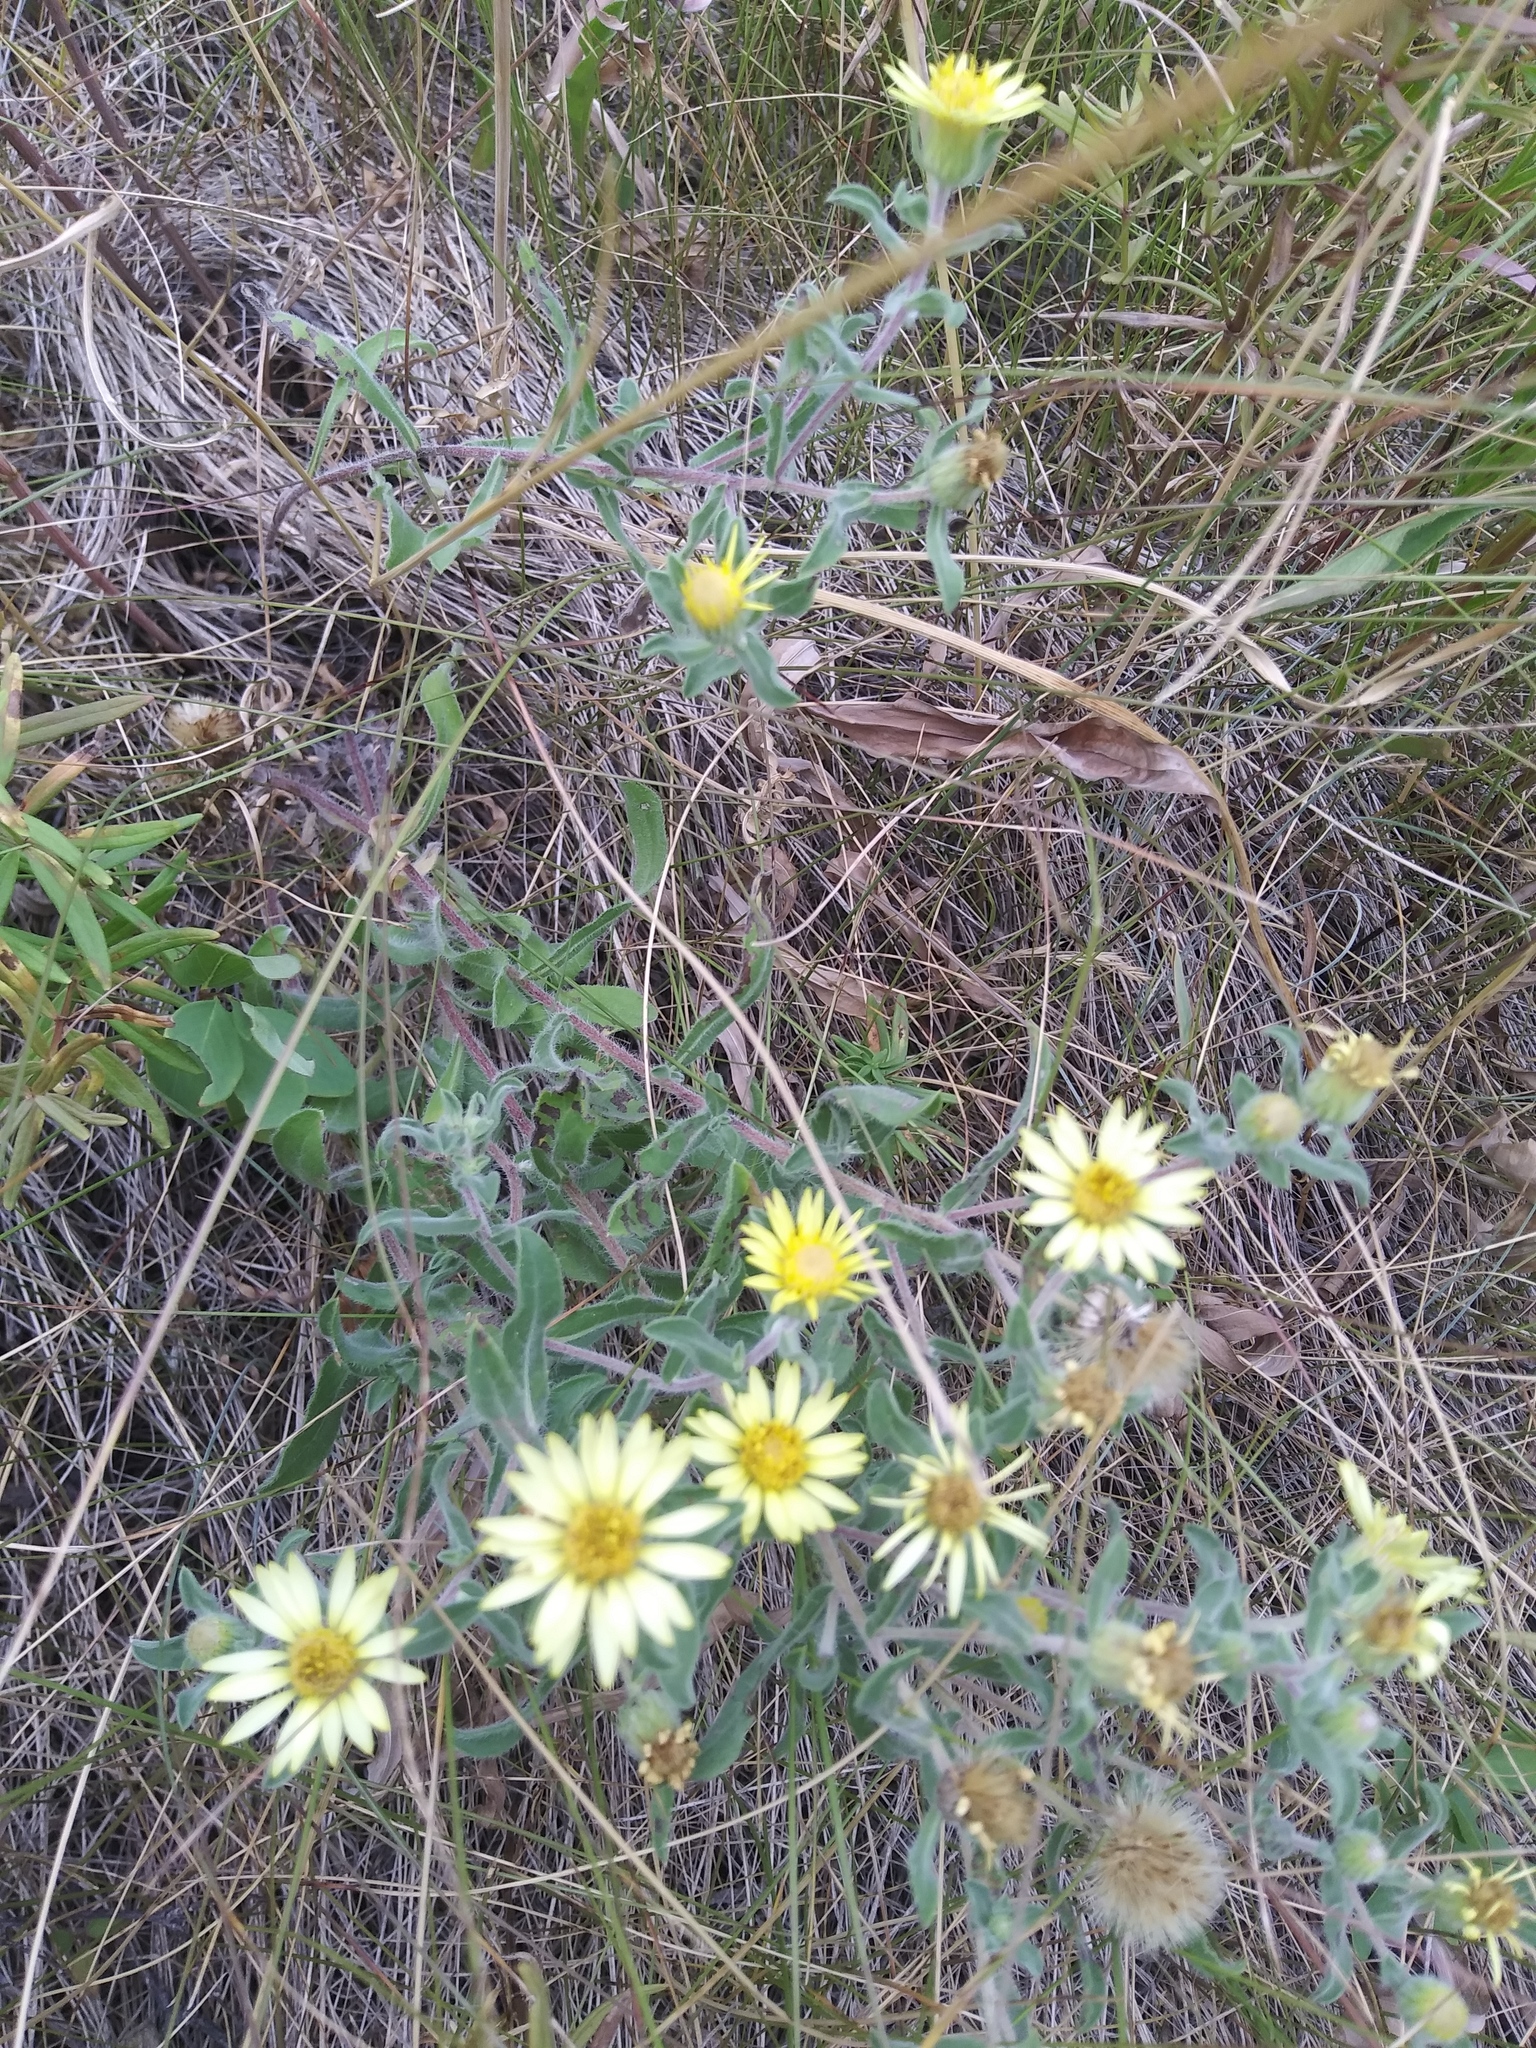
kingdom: Plantae
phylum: Tracheophyta
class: Magnoliopsida
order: Asterales
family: Asteraceae
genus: Heterotheca
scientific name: Heterotheca villosa
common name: Hairy false goldenaster
